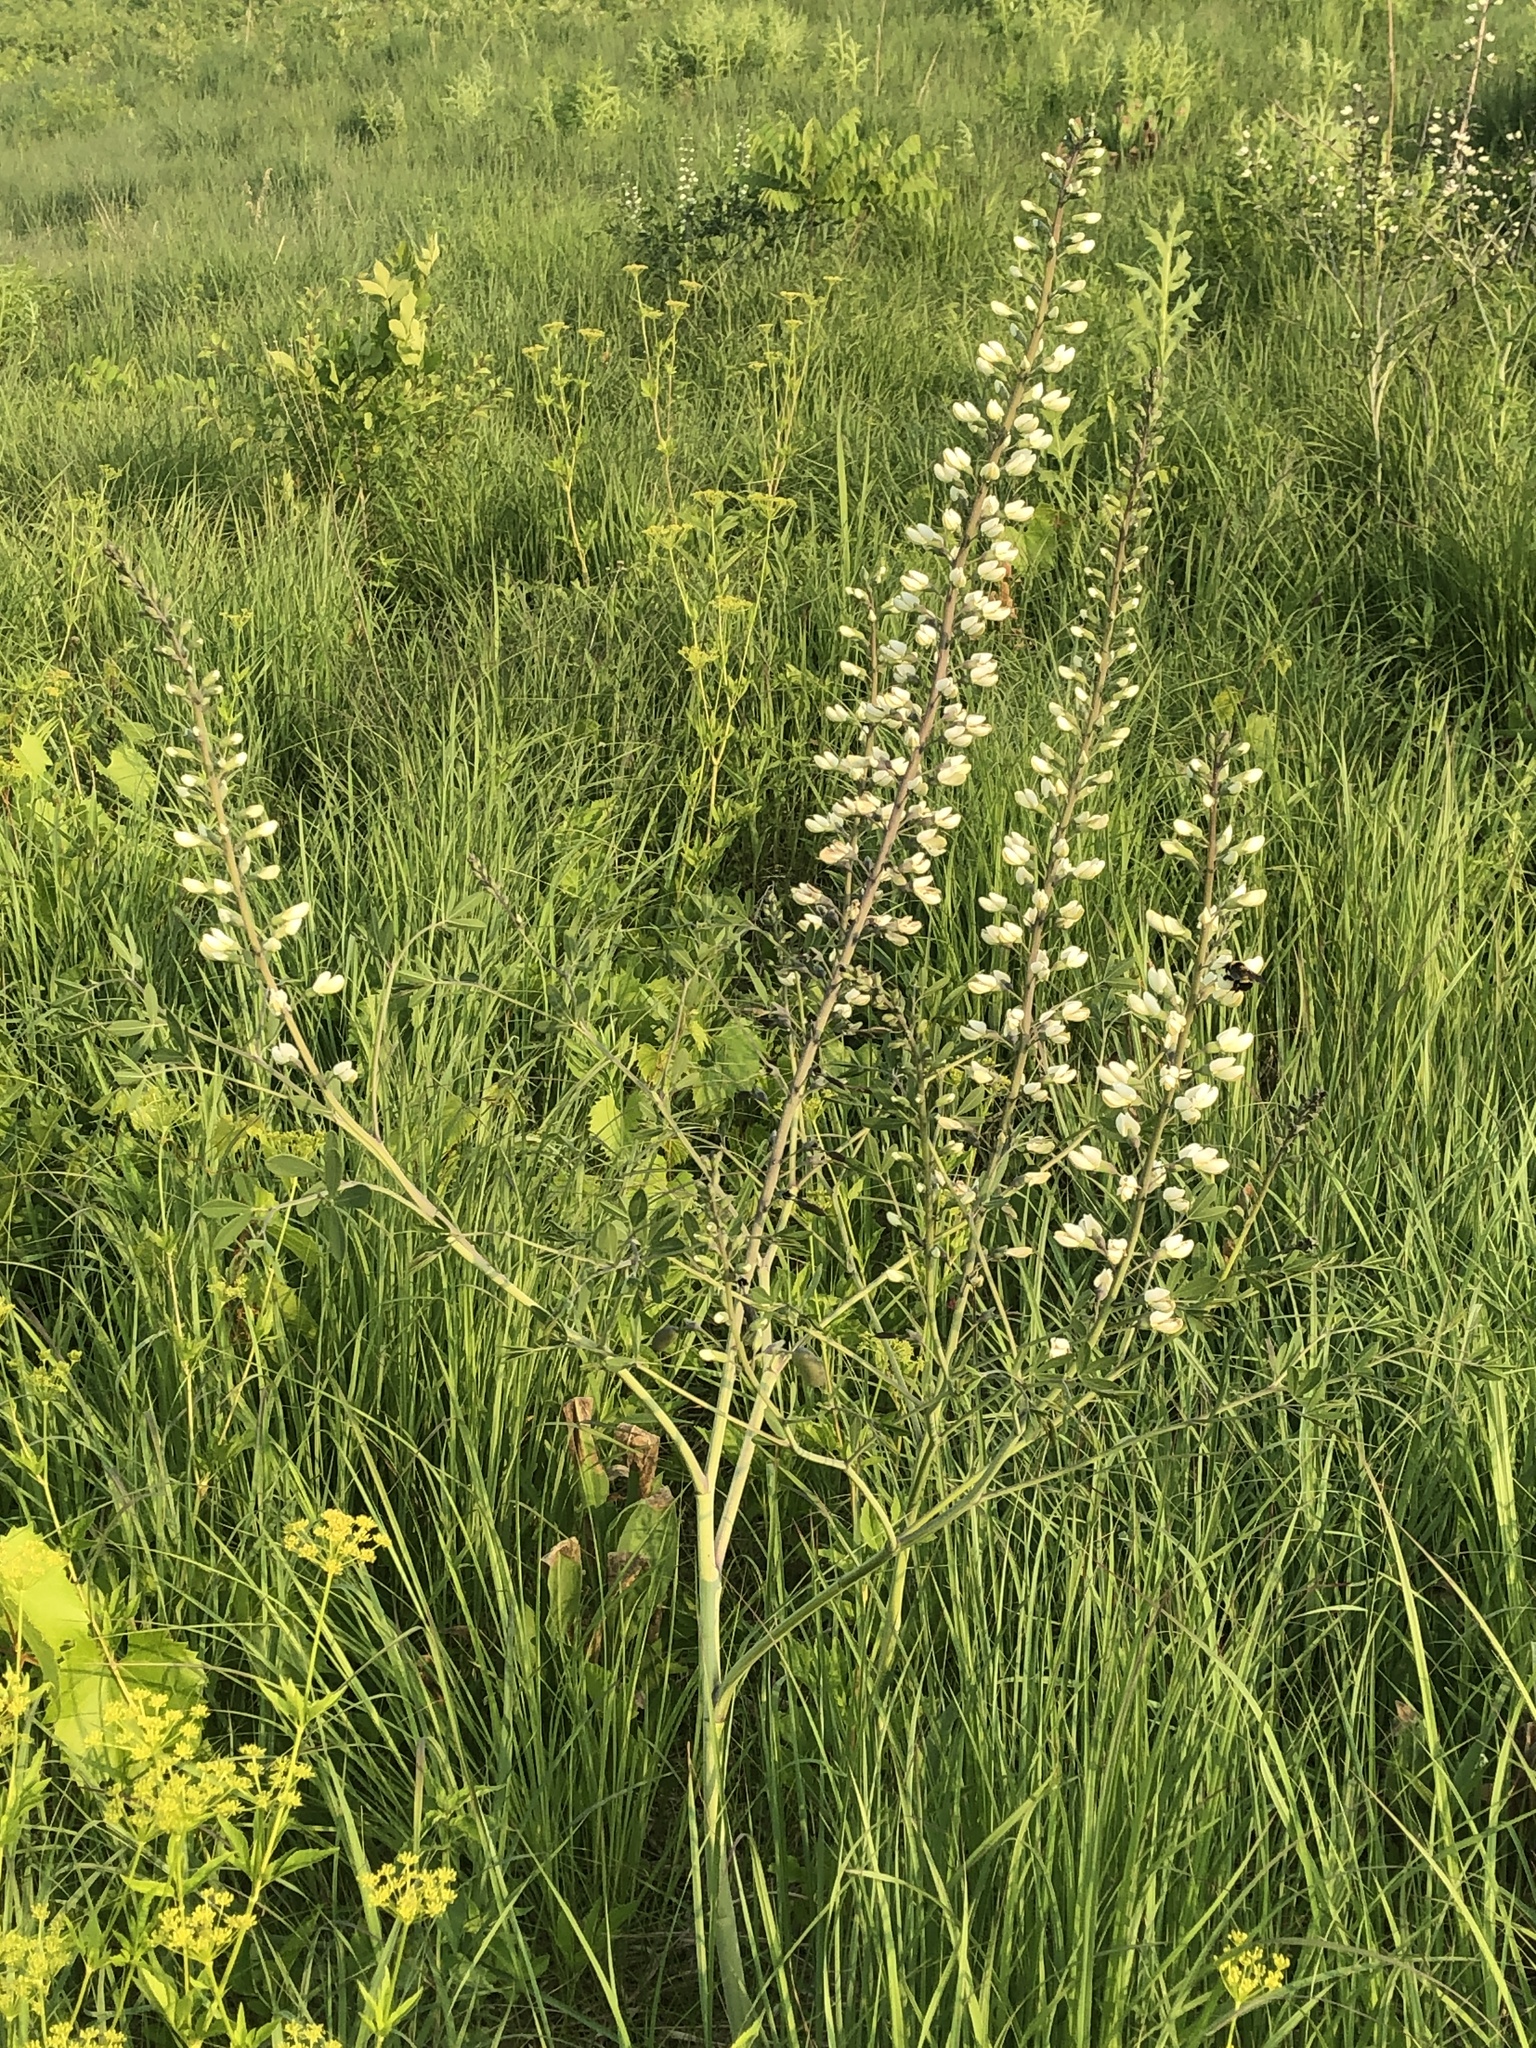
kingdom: Plantae
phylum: Tracheophyta
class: Magnoliopsida
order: Fabales
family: Fabaceae
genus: Baptisia
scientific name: Baptisia alba
